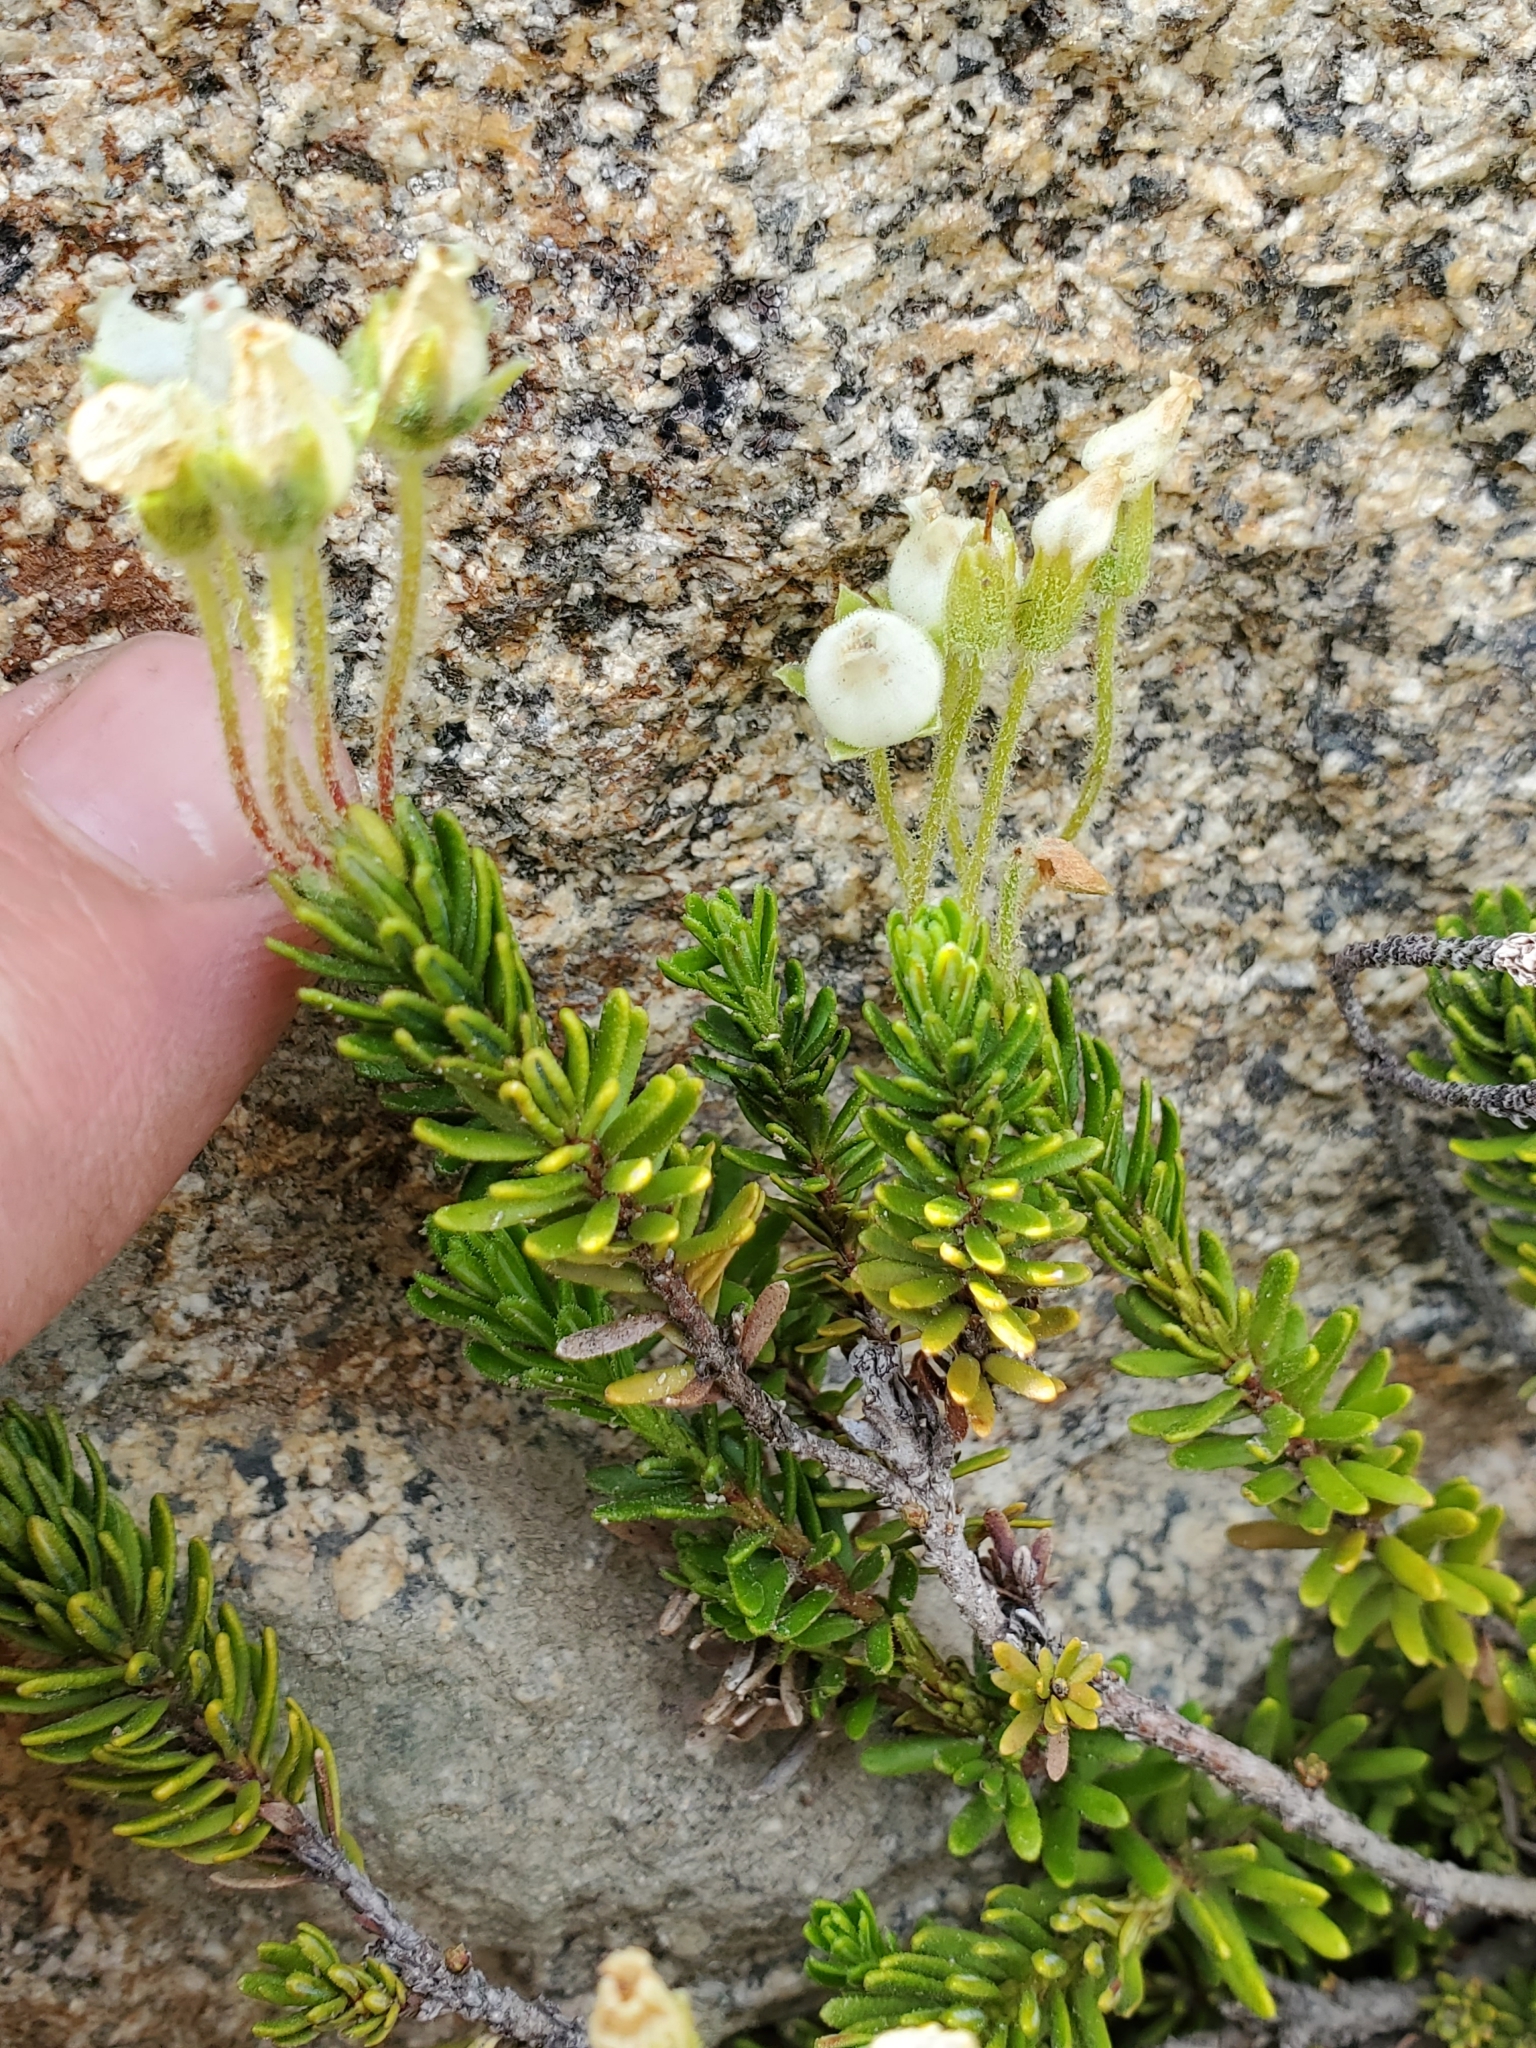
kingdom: Plantae
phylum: Tracheophyta
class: Magnoliopsida
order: Ericales
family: Ericaceae
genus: Phyllodoce
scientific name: Phyllodoce glanduliflora
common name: Cream mountain heather
